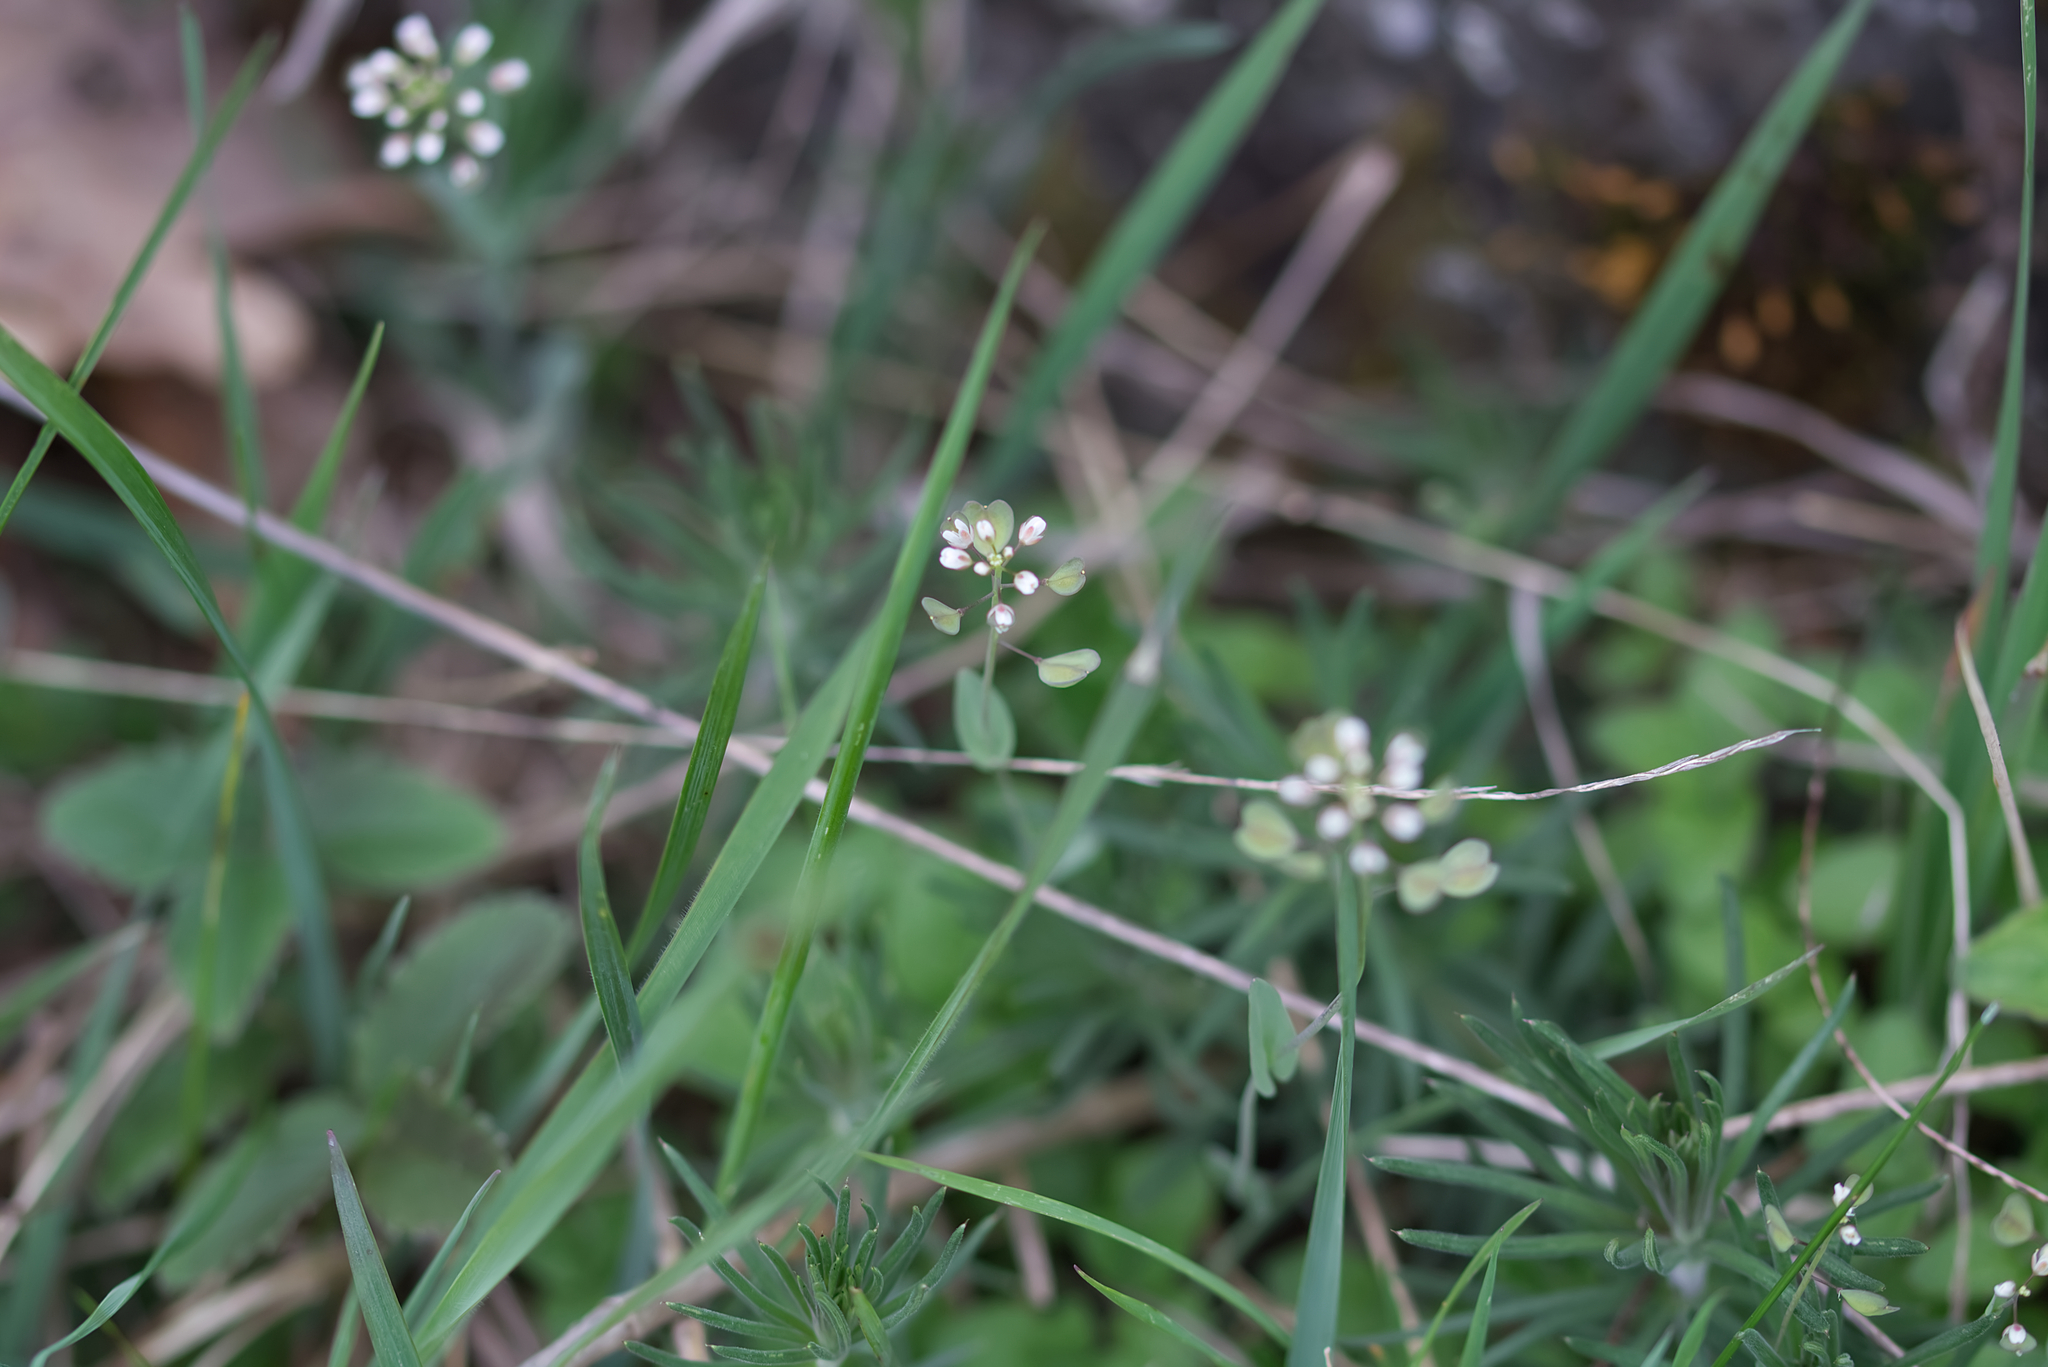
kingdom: Plantae
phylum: Tracheophyta
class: Magnoliopsida
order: Brassicales
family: Brassicaceae
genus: Noccaea
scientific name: Noccaea perfoliata
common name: Perfoliate pennycress
